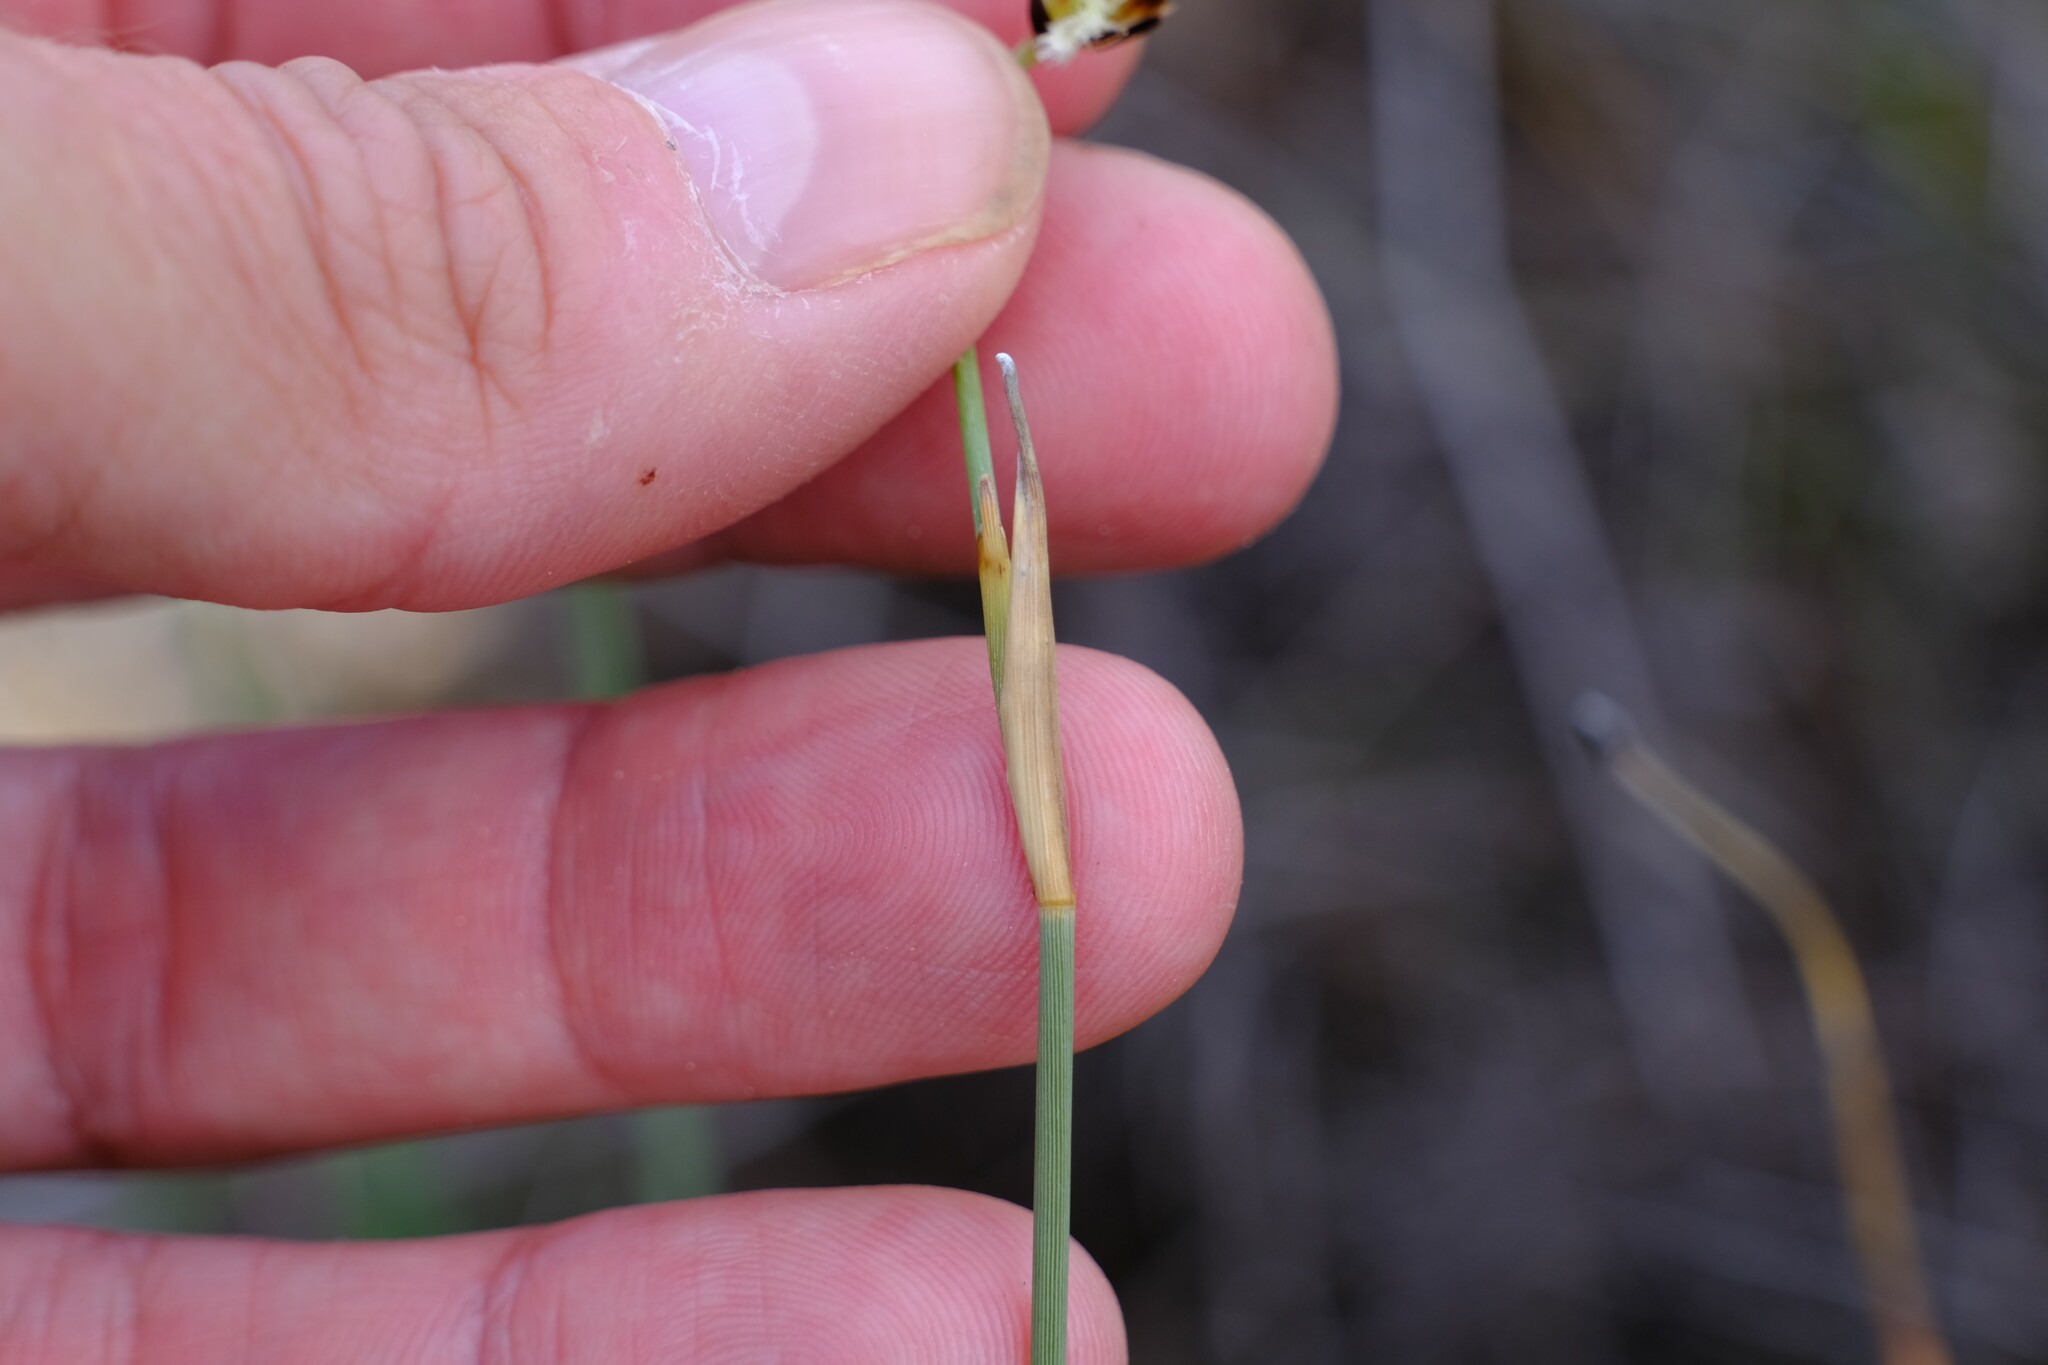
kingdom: Plantae
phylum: Tracheophyta
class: Liliopsida
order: Poales
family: Ecdeiocoleaceae
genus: Georgeantha
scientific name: Georgeantha hexandra
